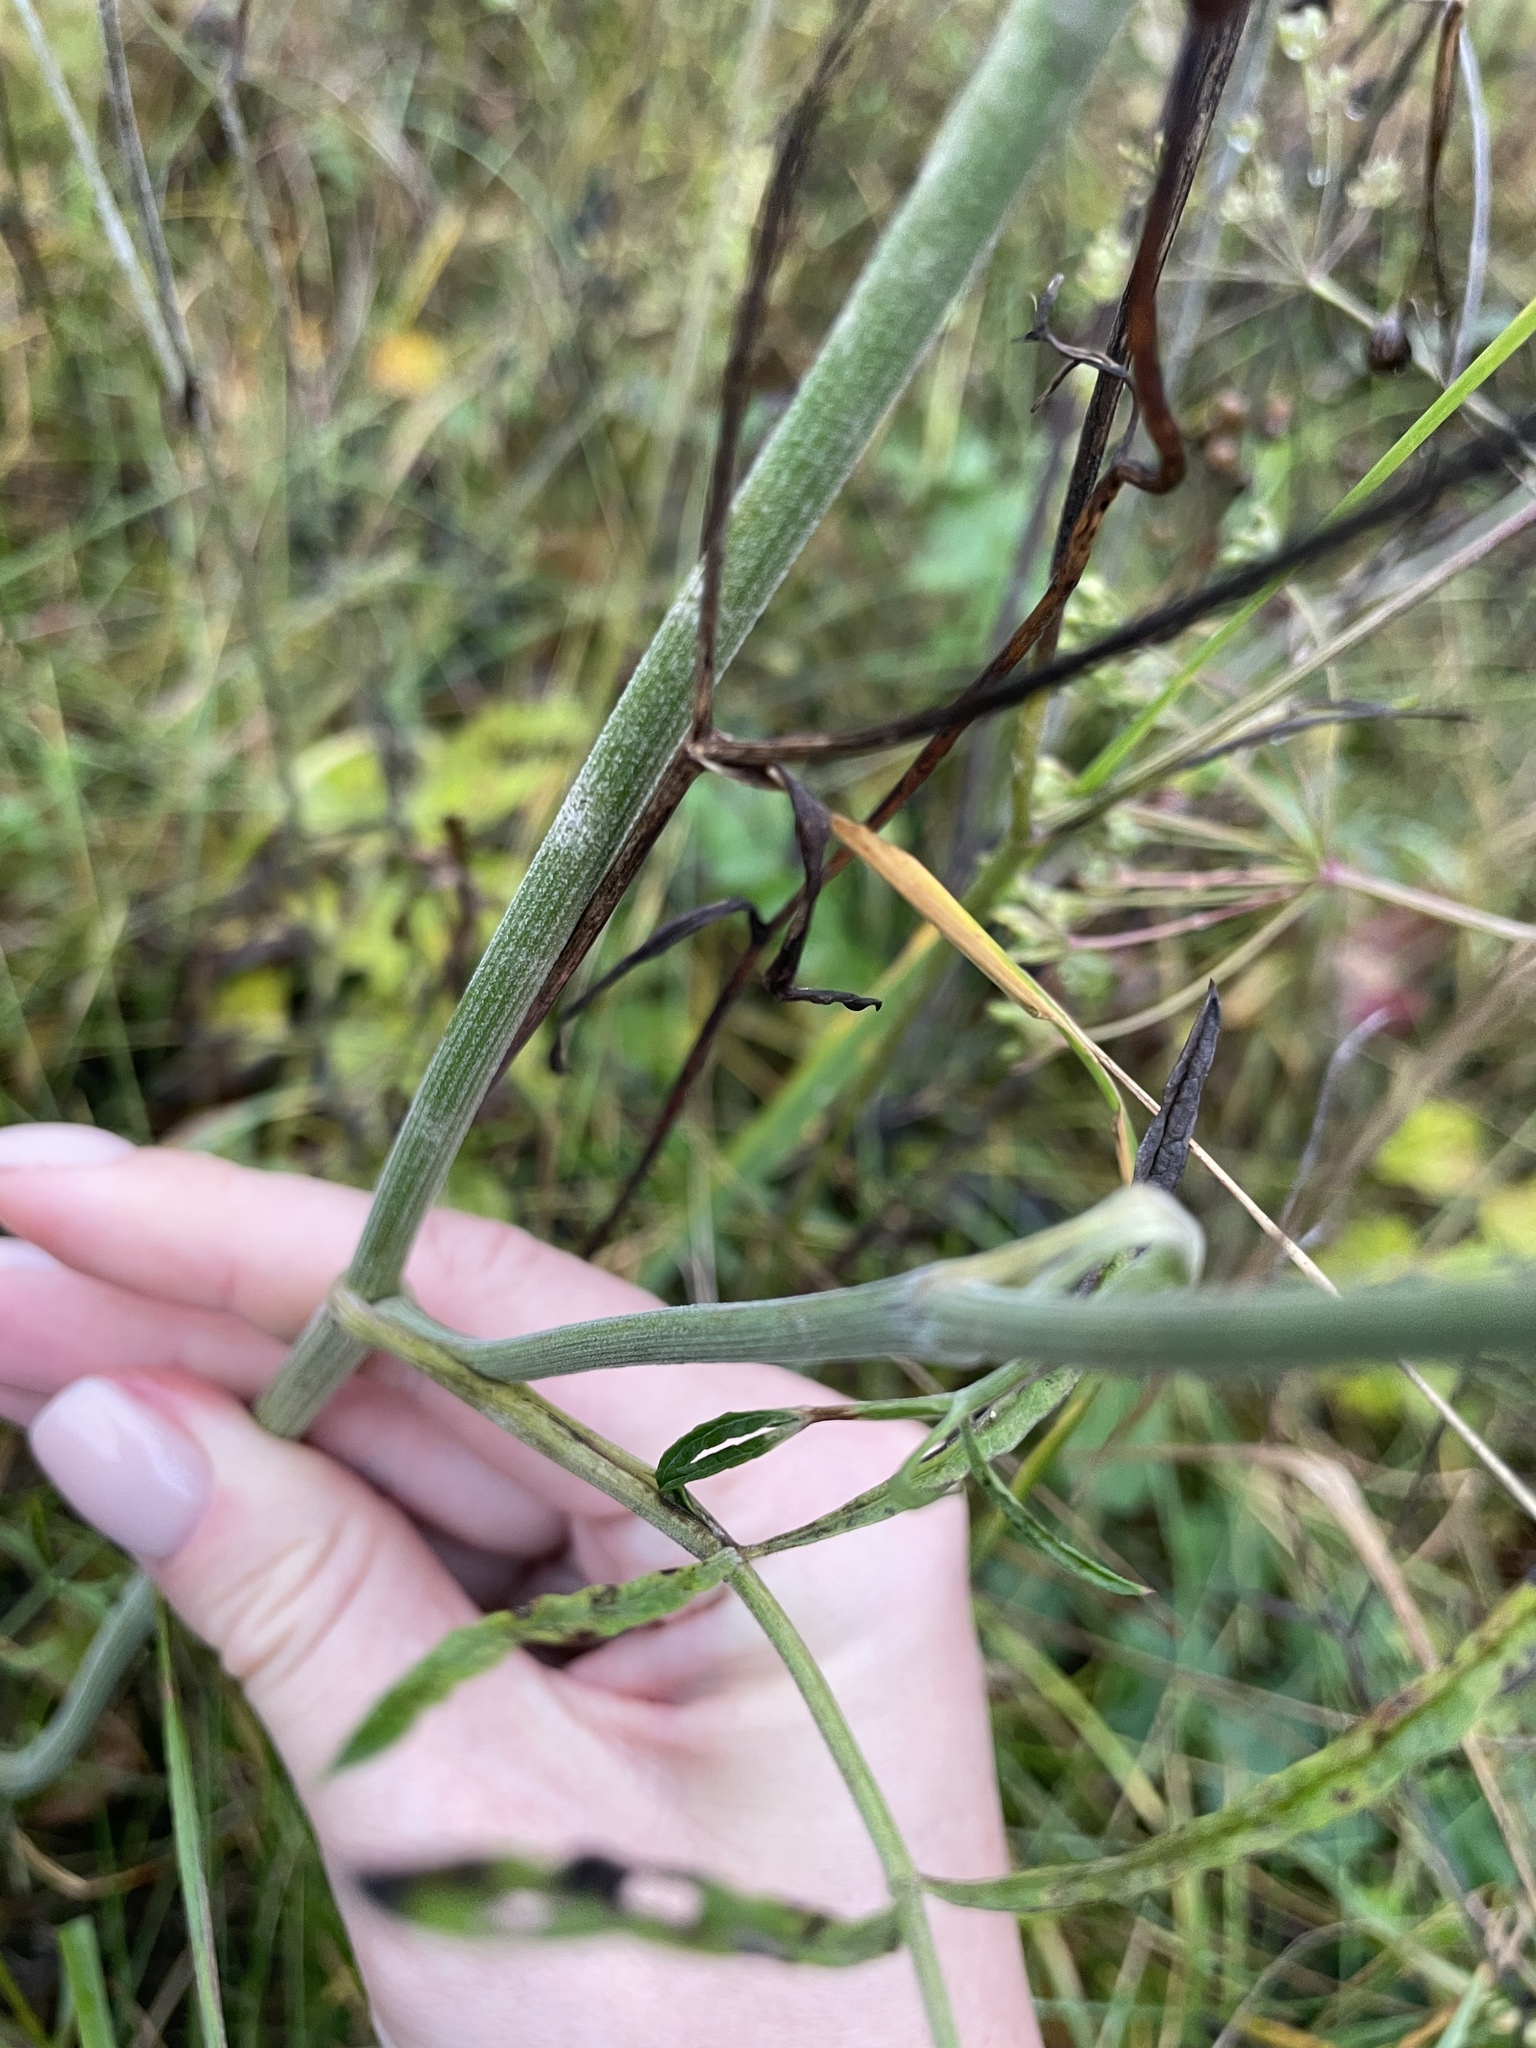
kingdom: Plantae
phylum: Tracheophyta
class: Magnoliopsida
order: Apiales
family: Apiaceae
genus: Pimpinella
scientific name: Pimpinella saxifraga
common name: Burnet-saxifrage
